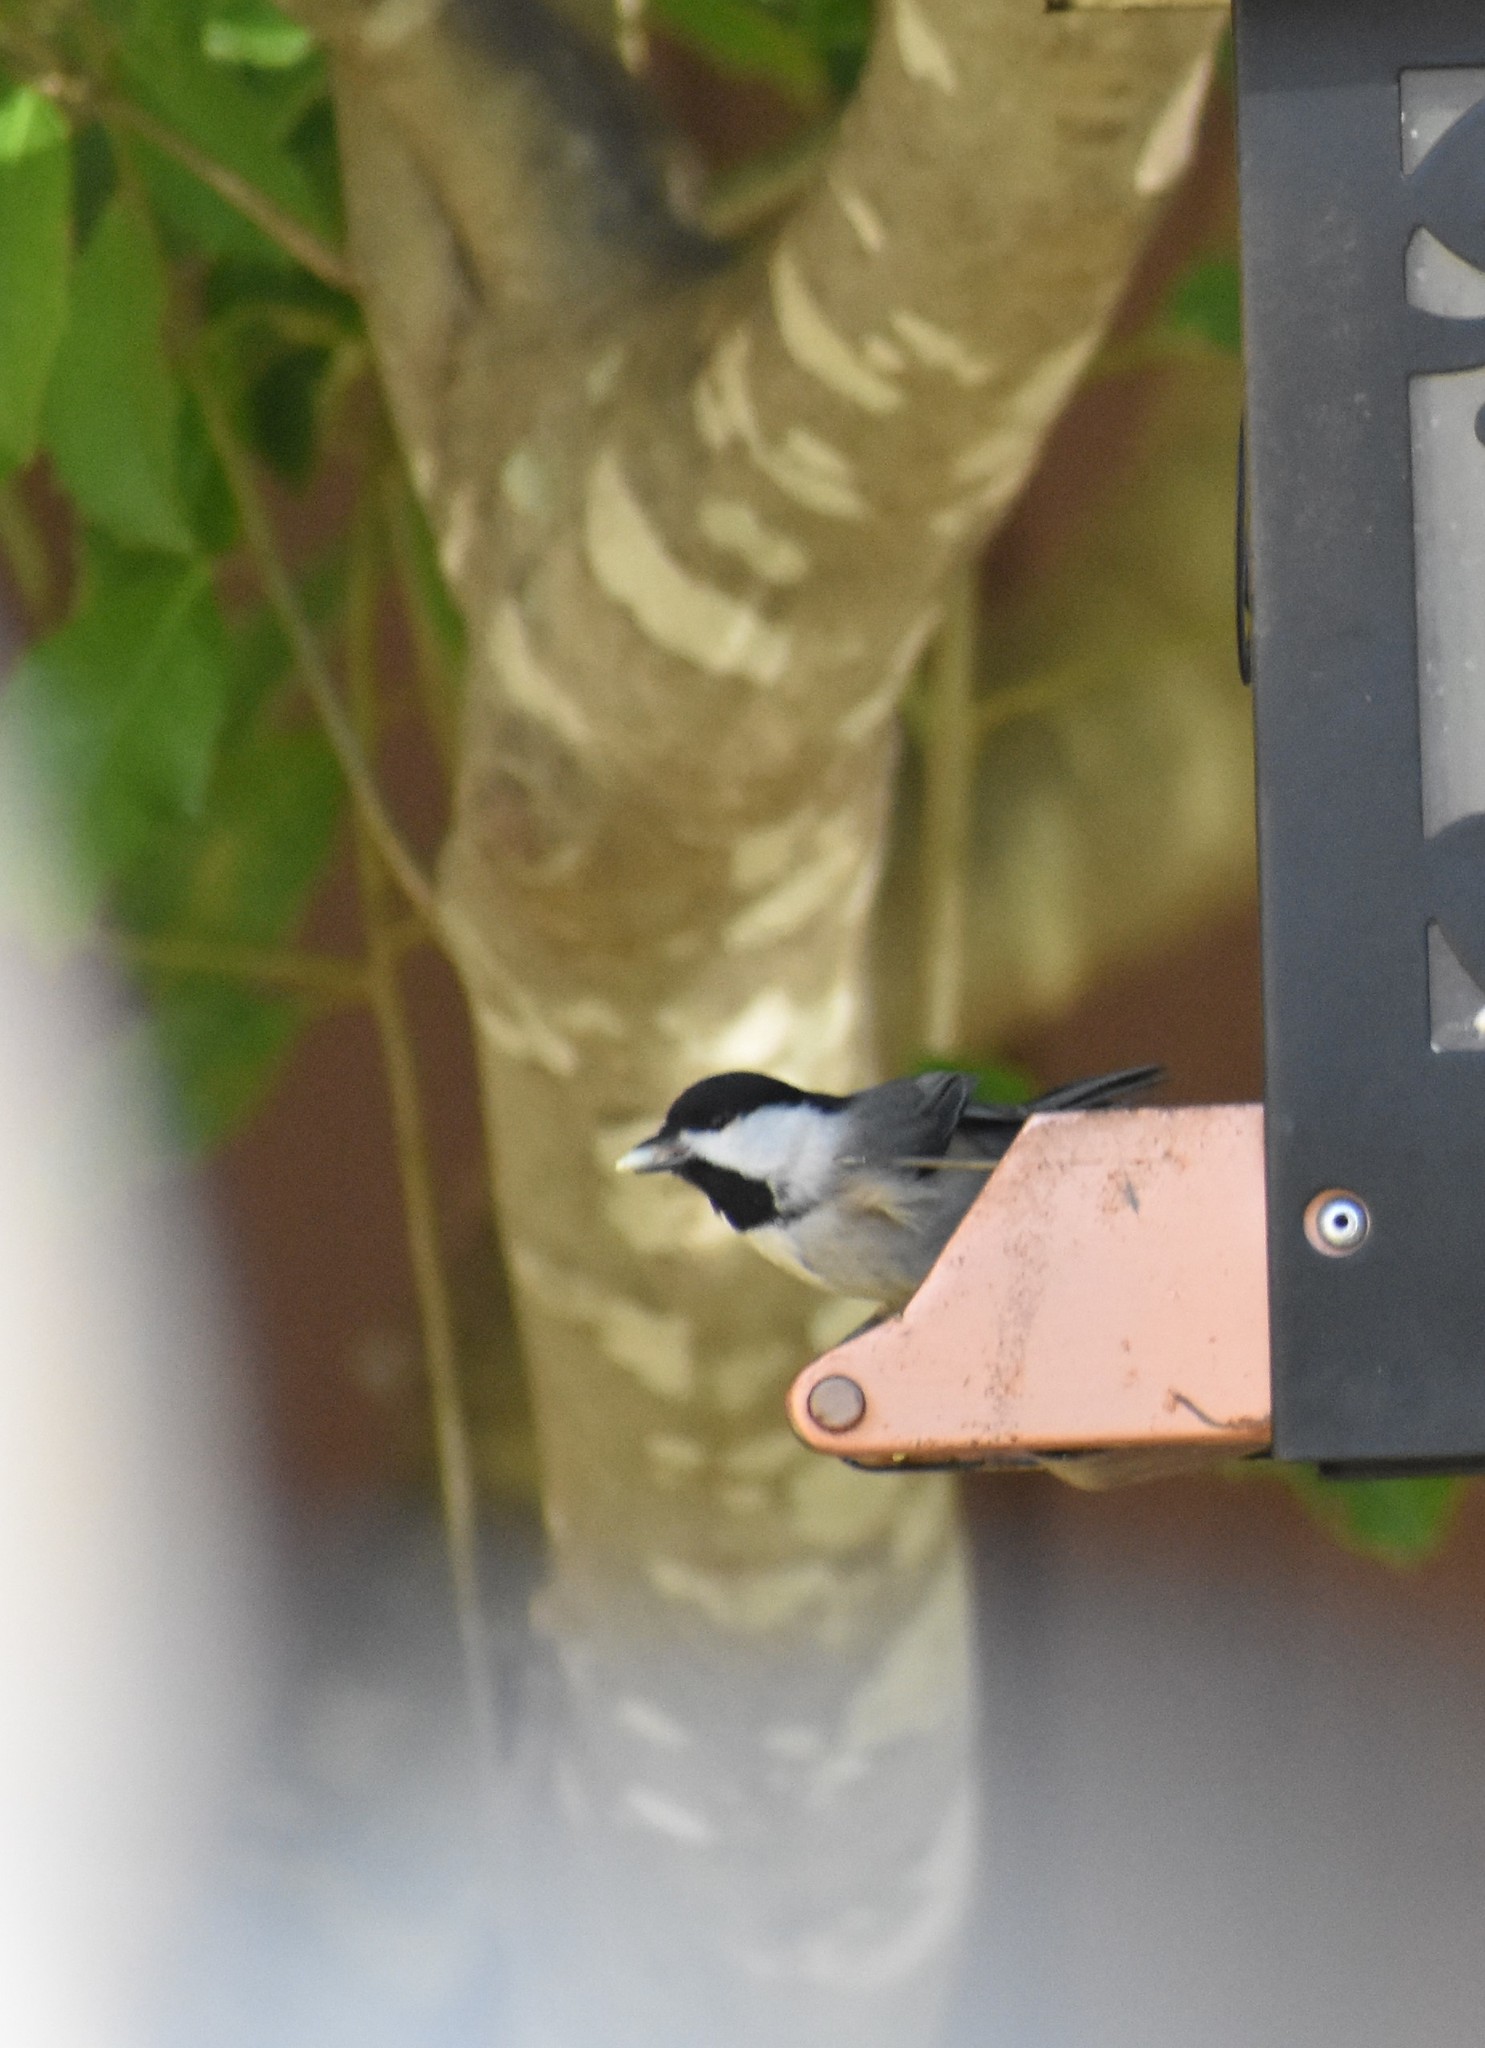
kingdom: Animalia
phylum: Chordata
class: Aves
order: Passeriformes
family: Paridae
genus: Poecile
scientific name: Poecile carolinensis
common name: Carolina chickadee
